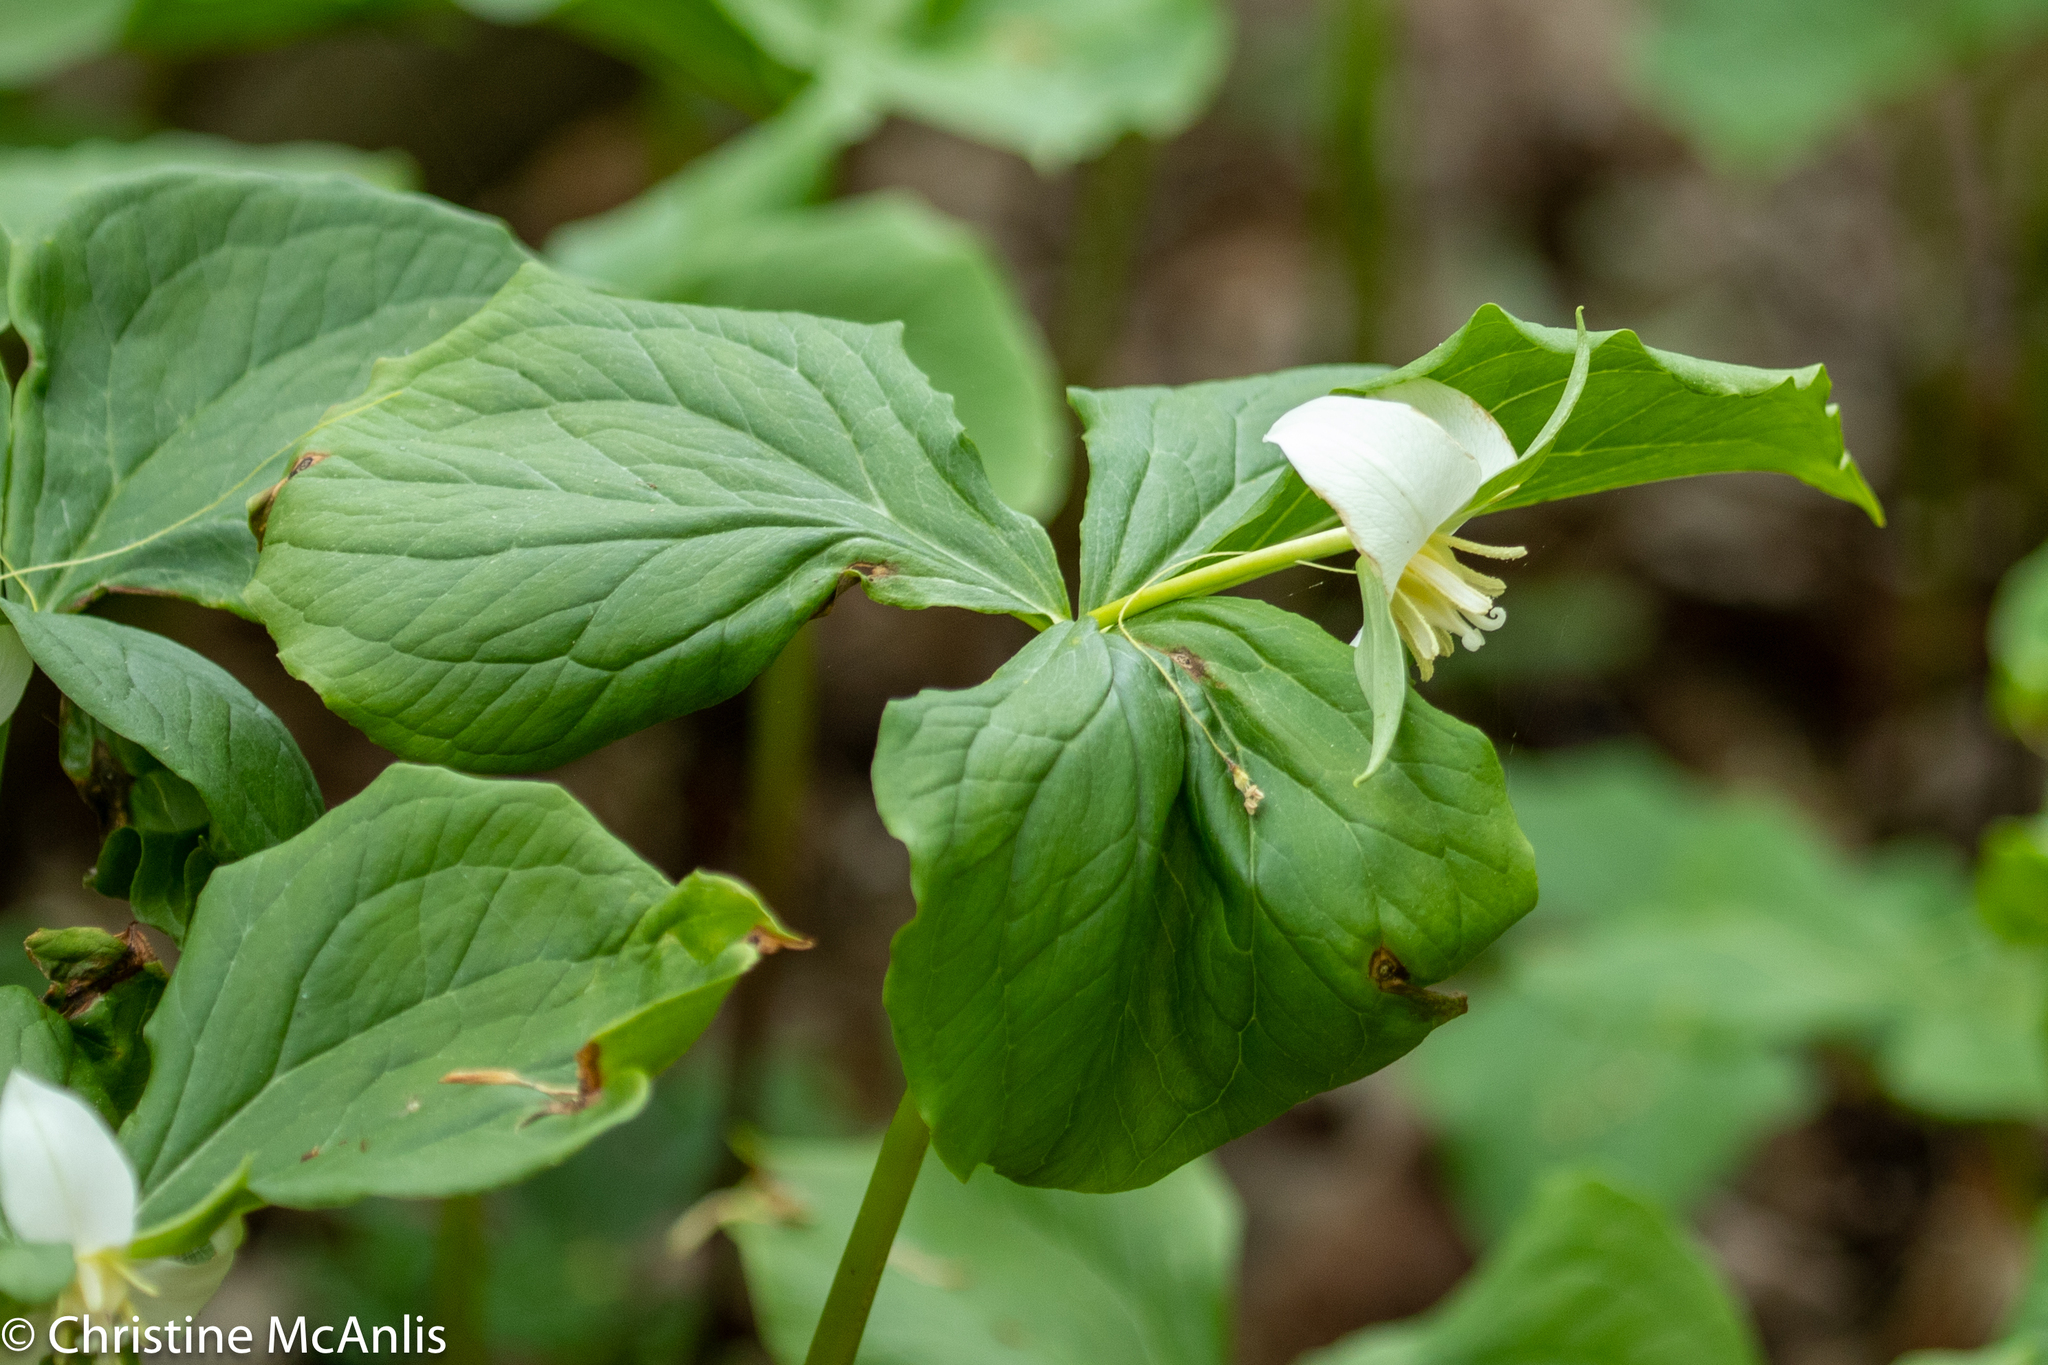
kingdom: Plantae
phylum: Tracheophyta
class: Liliopsida
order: Liliales
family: Melanthiaceae
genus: Trillium
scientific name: Trillium flexipes
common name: Drooping trillium
